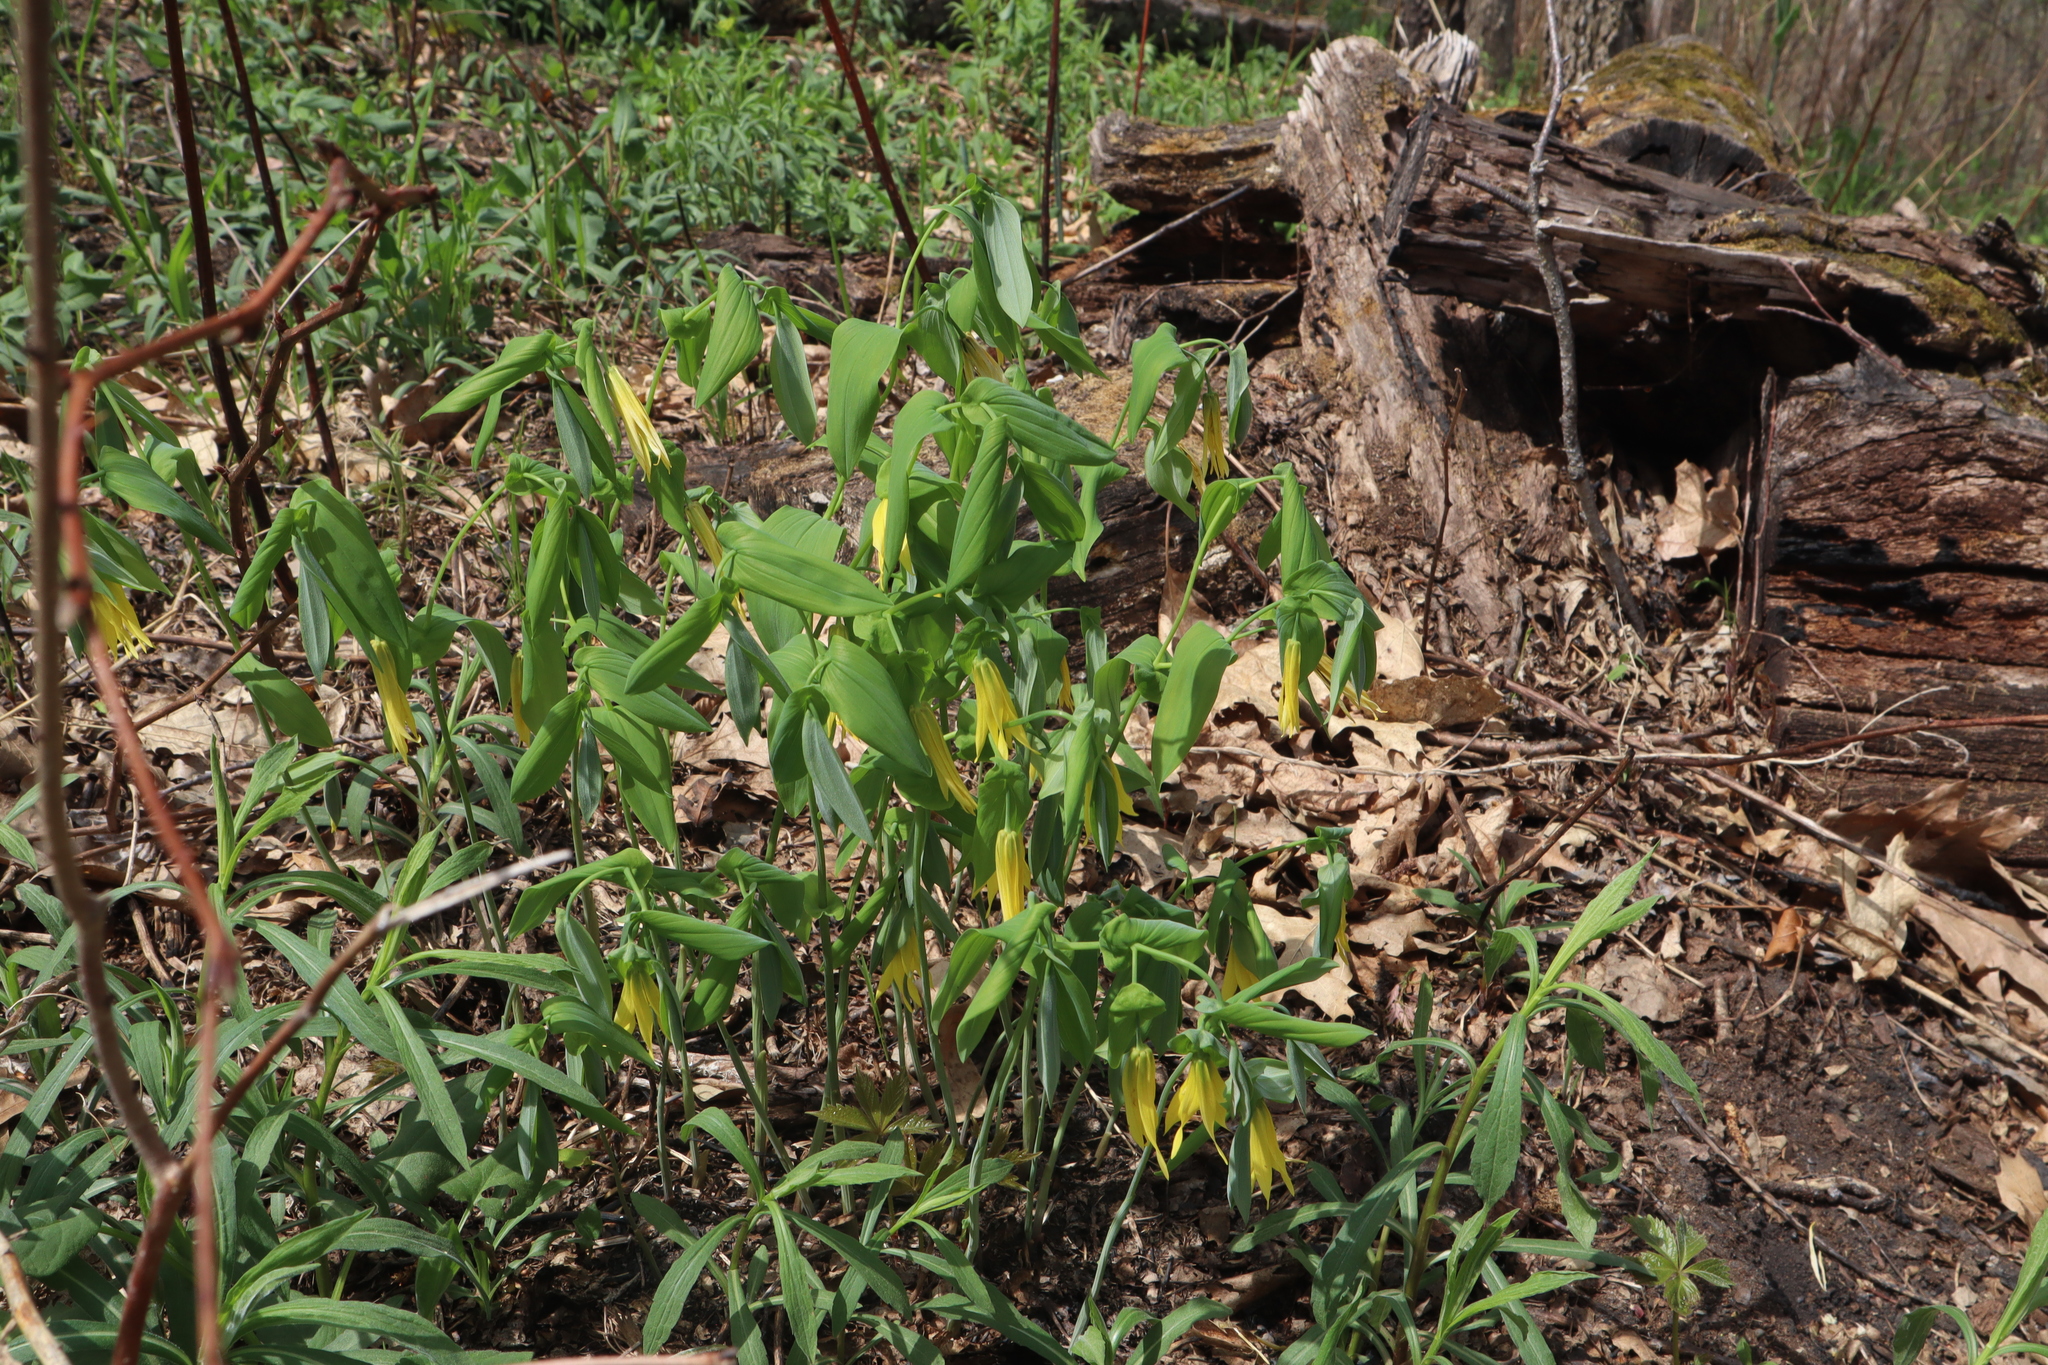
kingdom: Plantae
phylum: Tracheophyta
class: Liliopsida
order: Liliales
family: Colchicaceae
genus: Uvularia
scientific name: Uvularia grandiflora
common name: Bellwort
